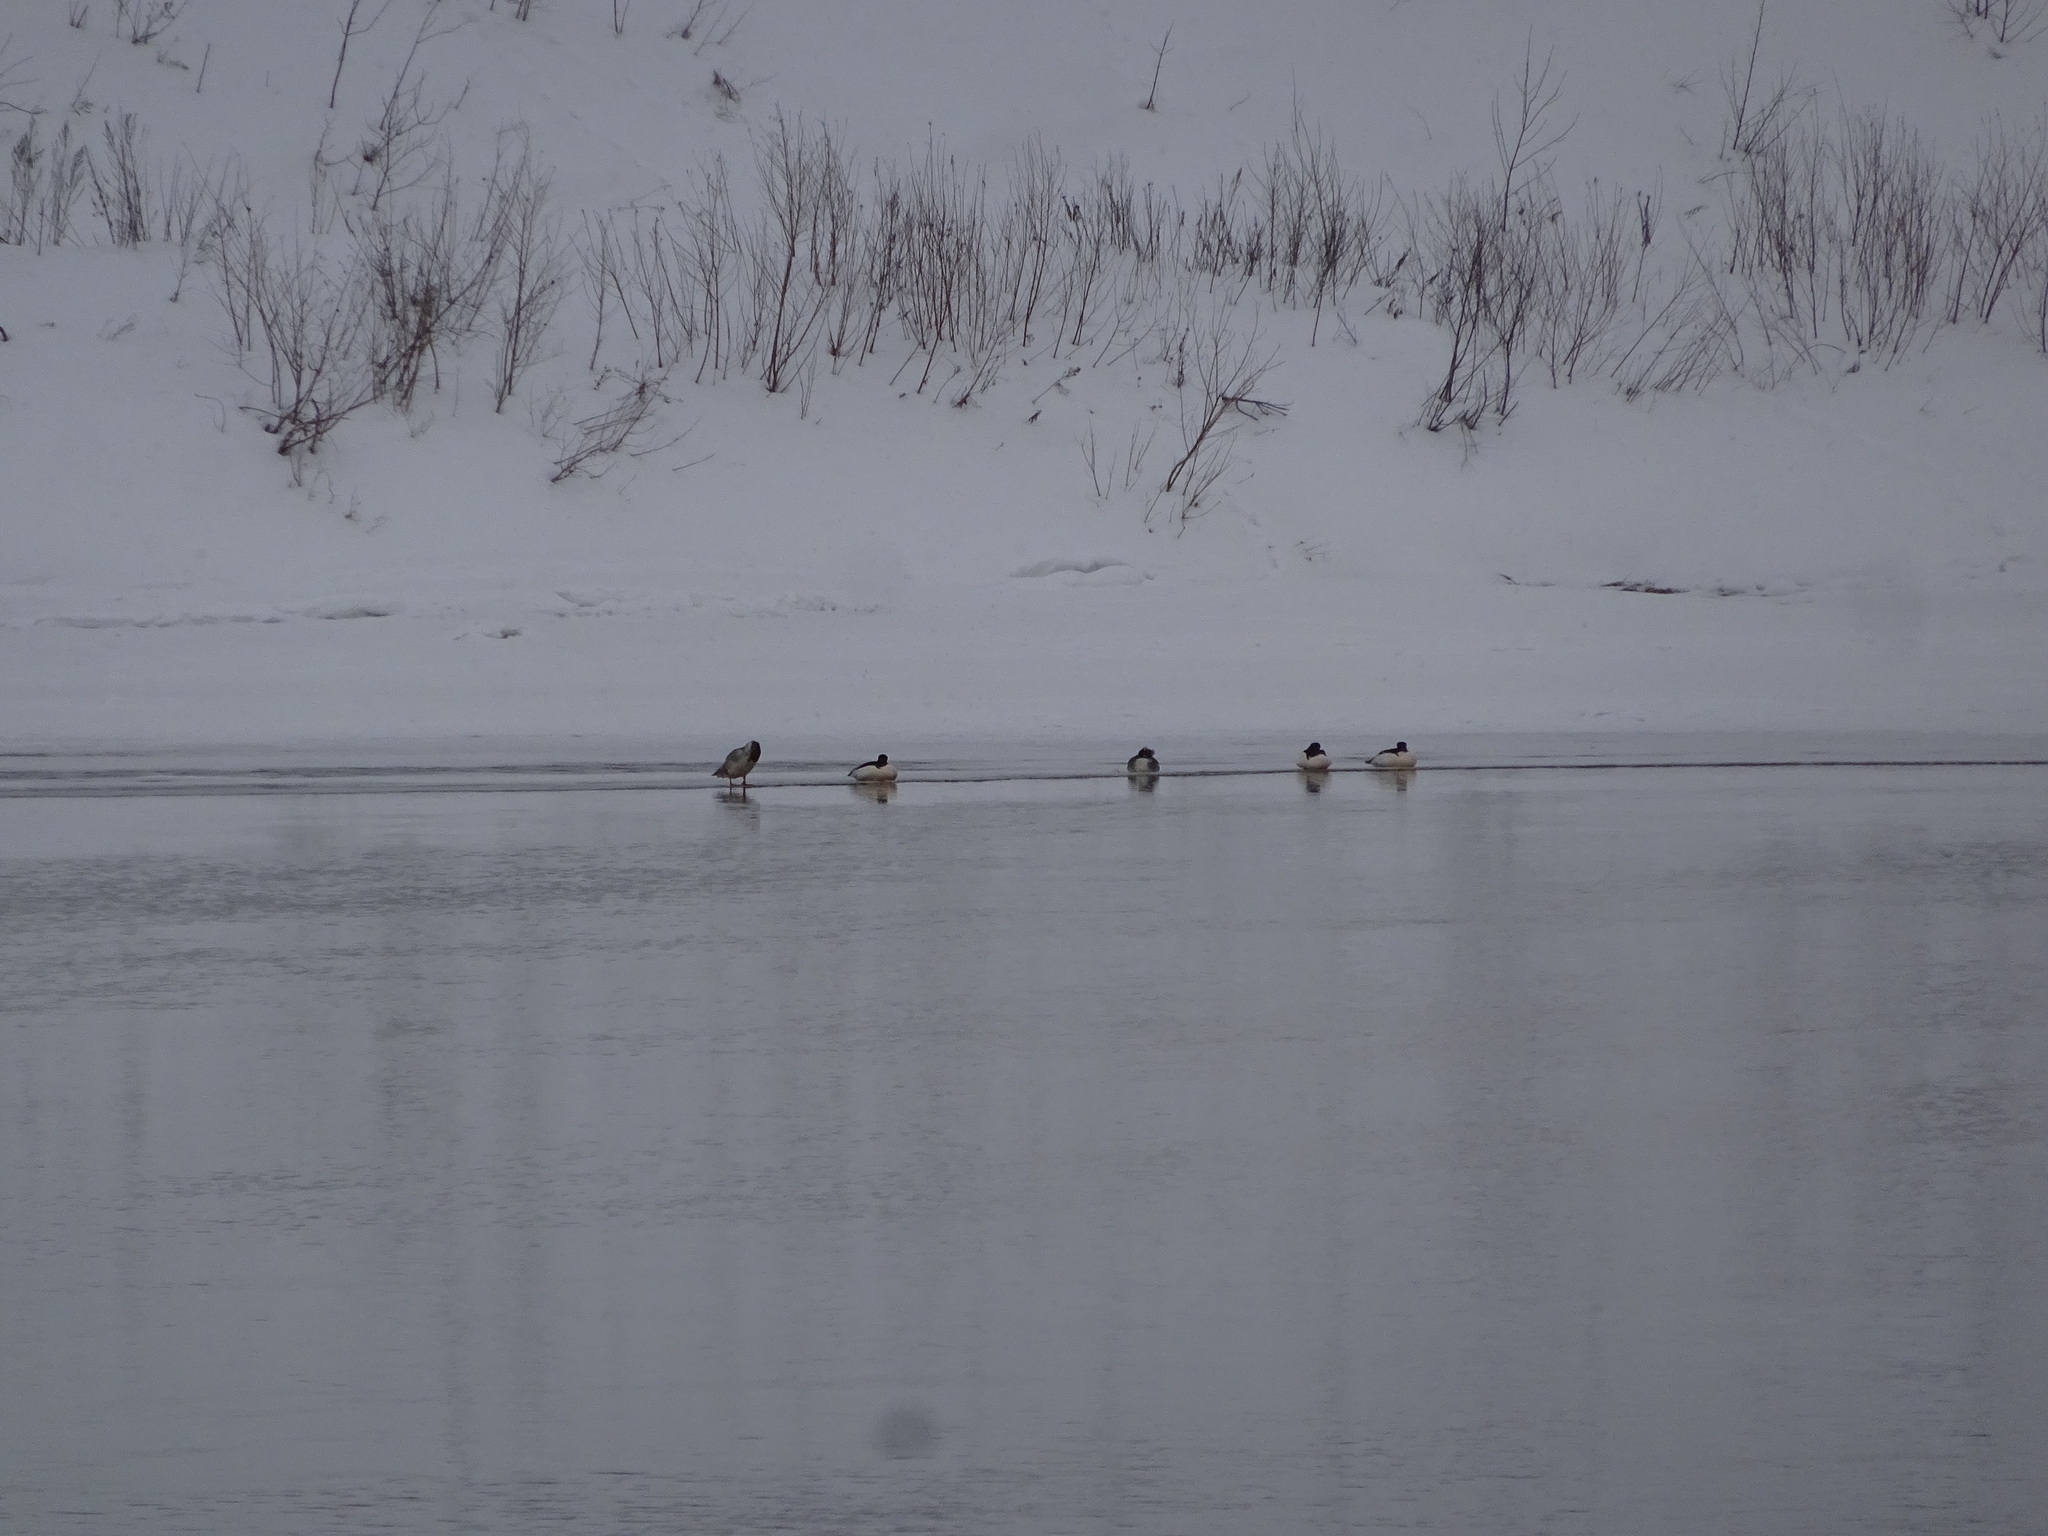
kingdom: Animalia
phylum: Chordata
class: Aves
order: Anseriformes
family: Anatidae
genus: Mergus
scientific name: Mergus merganser
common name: Common merganser
